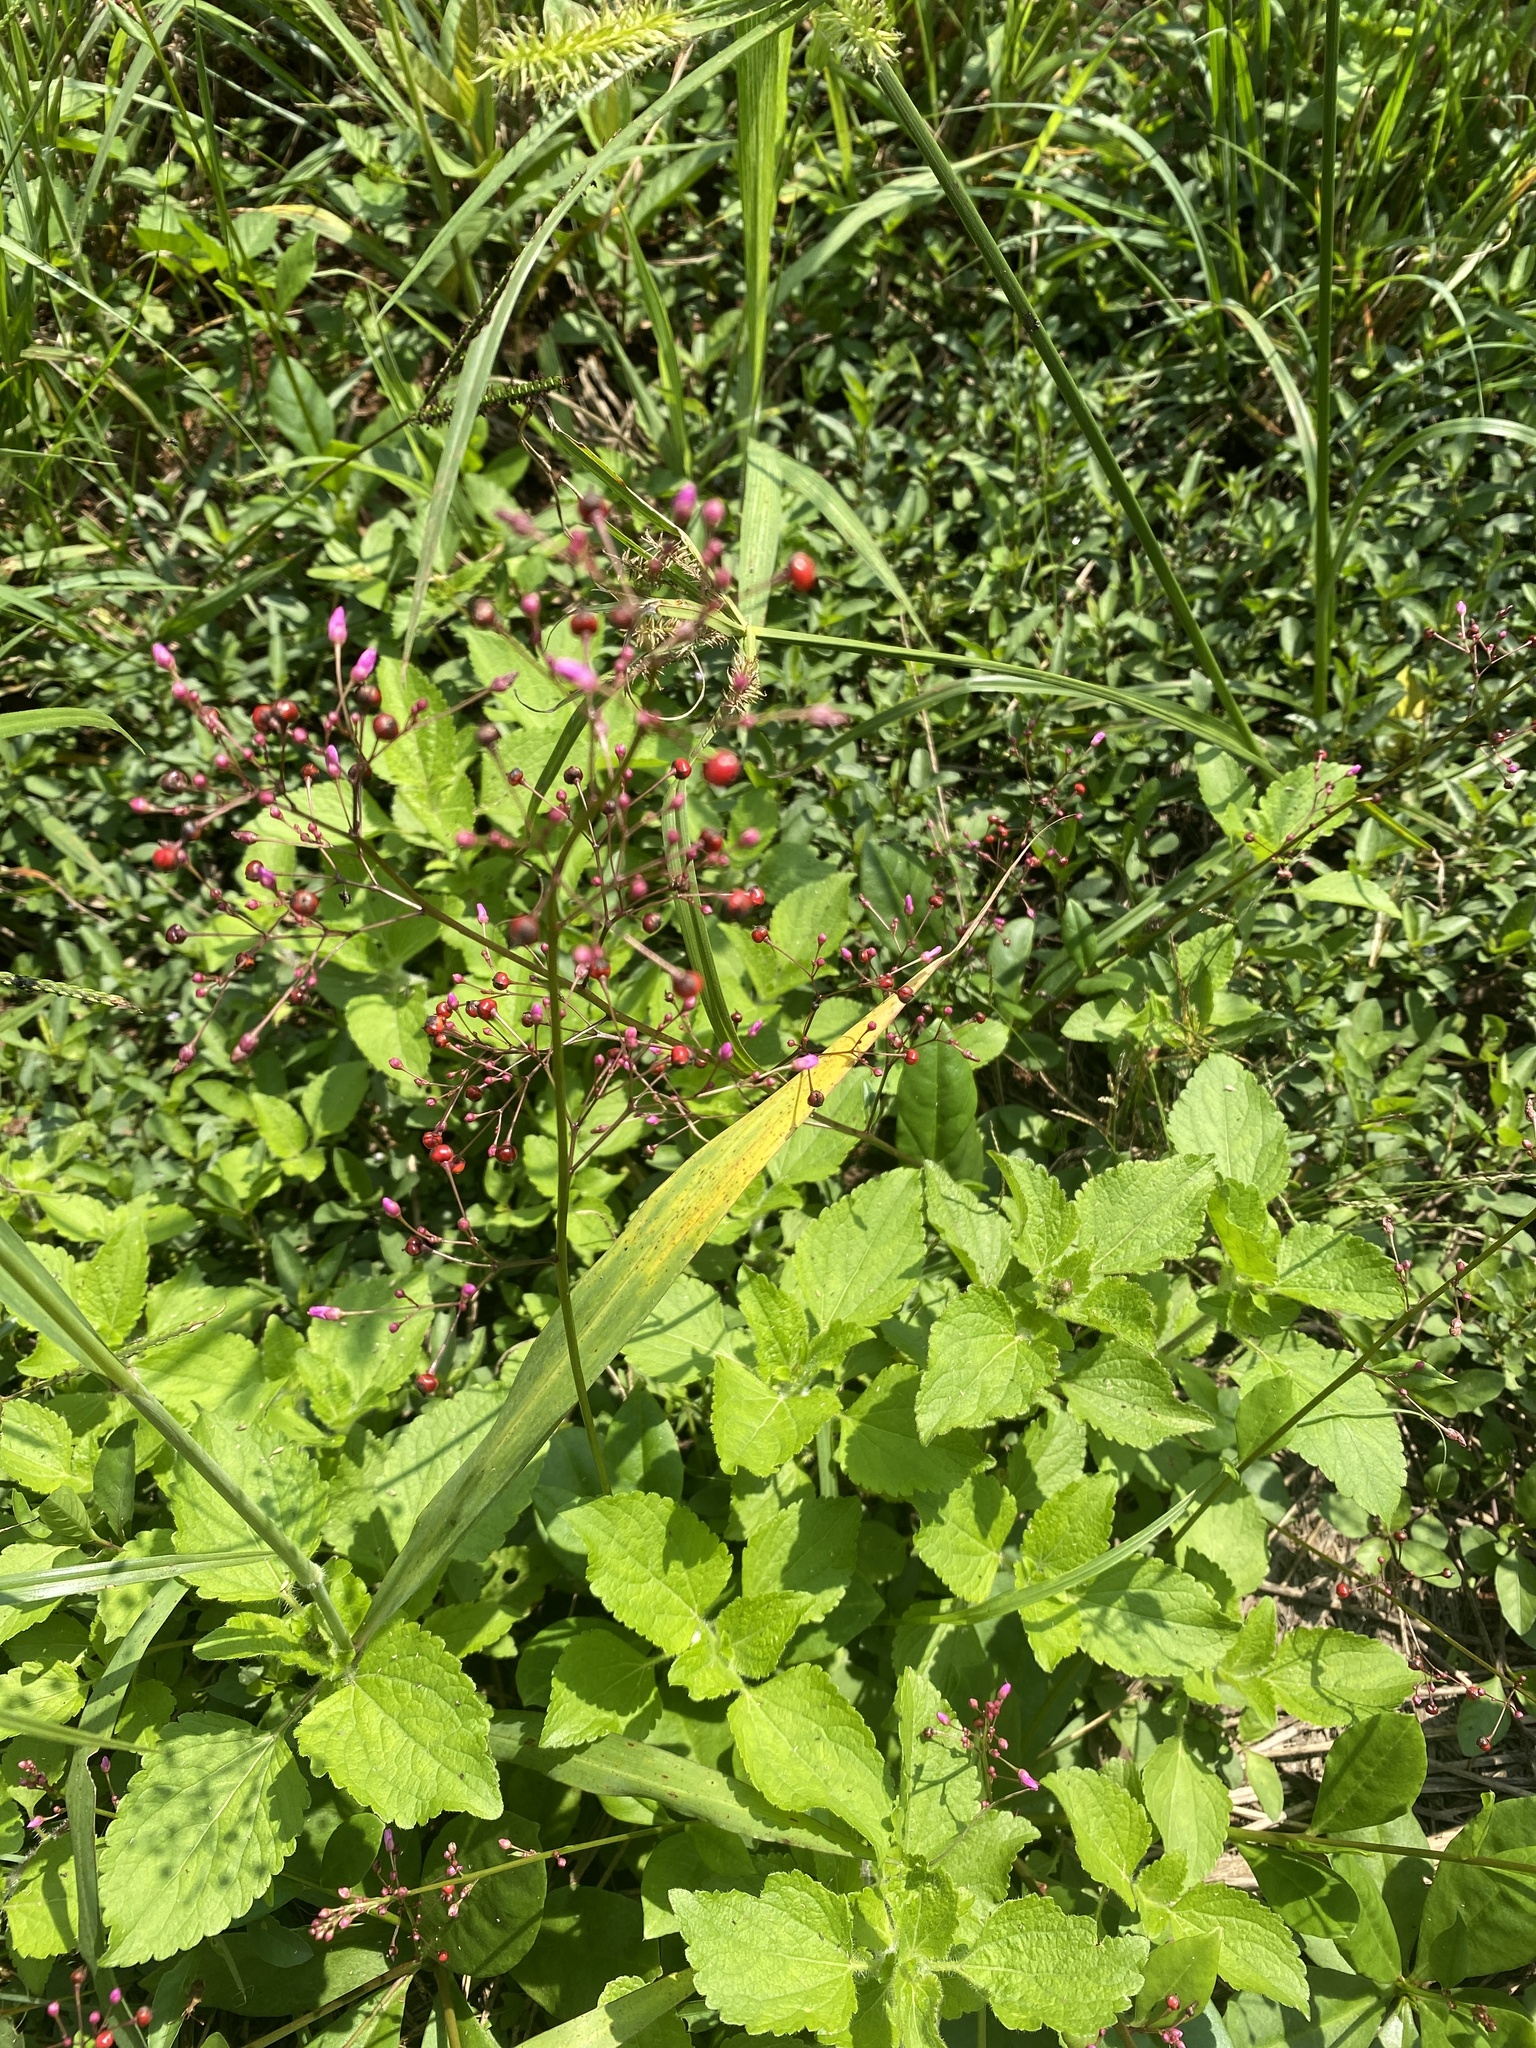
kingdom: Plantae
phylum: Tracheophyta
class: Magnoliopsida
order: Caryophyllales
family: Talinaceae
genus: Talinum
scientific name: Talinum paniculatum
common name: Jewels of opar
